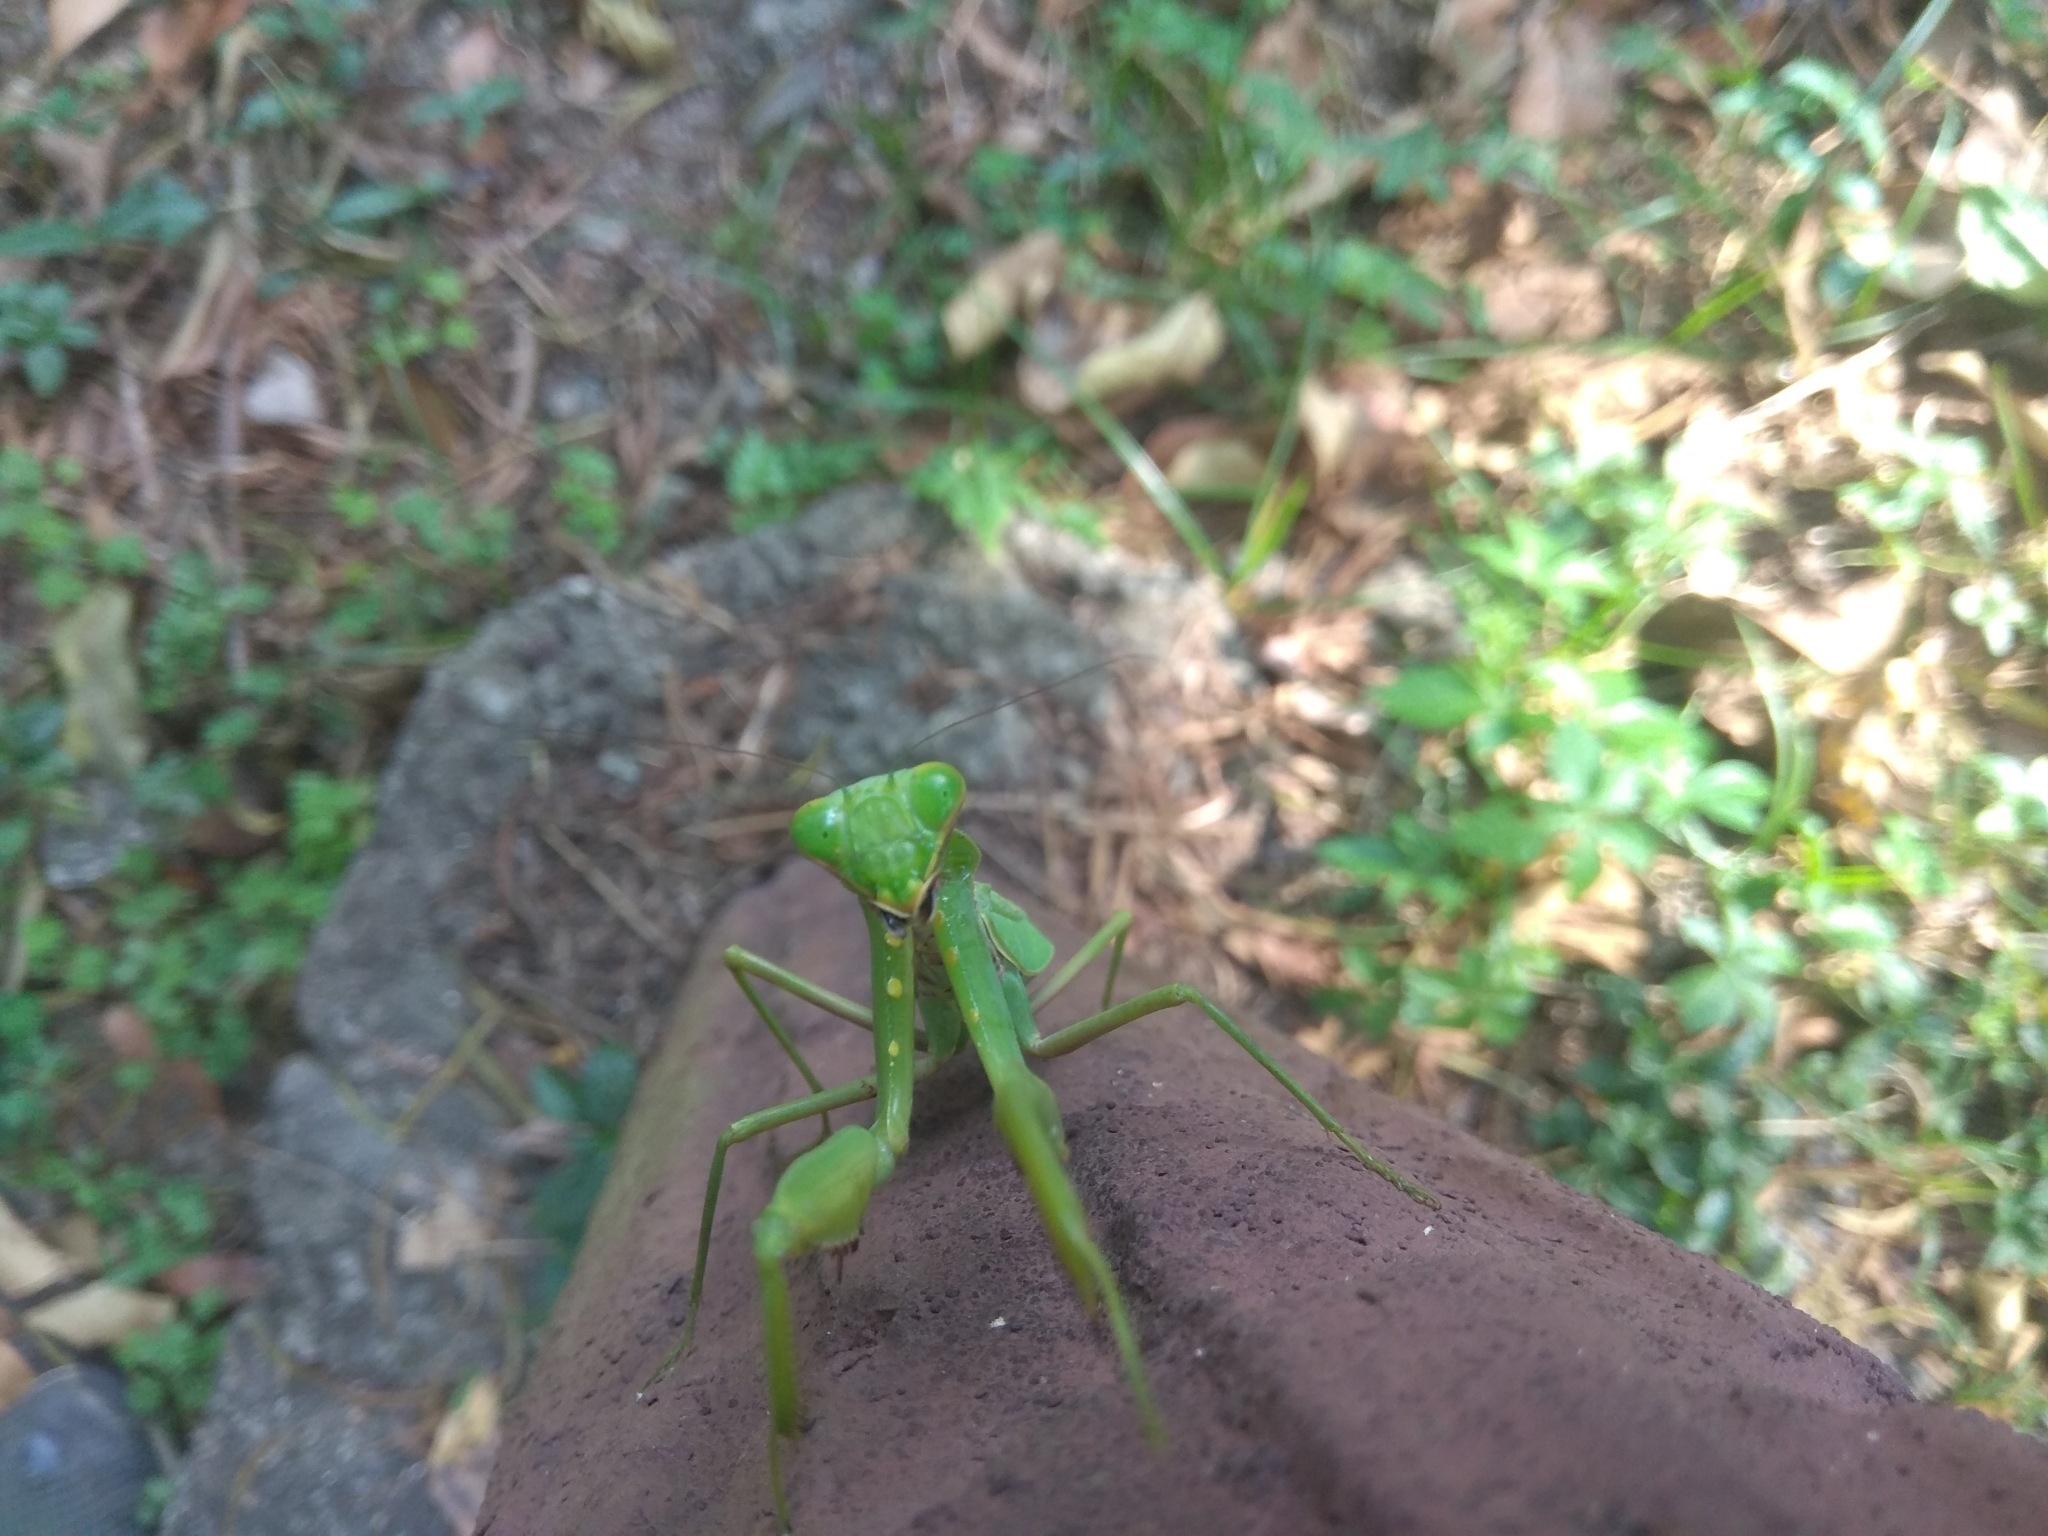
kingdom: Animalia
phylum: Arthropoda
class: Insecta
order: Mantodea
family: Mantidae
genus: Hierodula
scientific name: Hierodula patellifera
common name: Asian mantis
